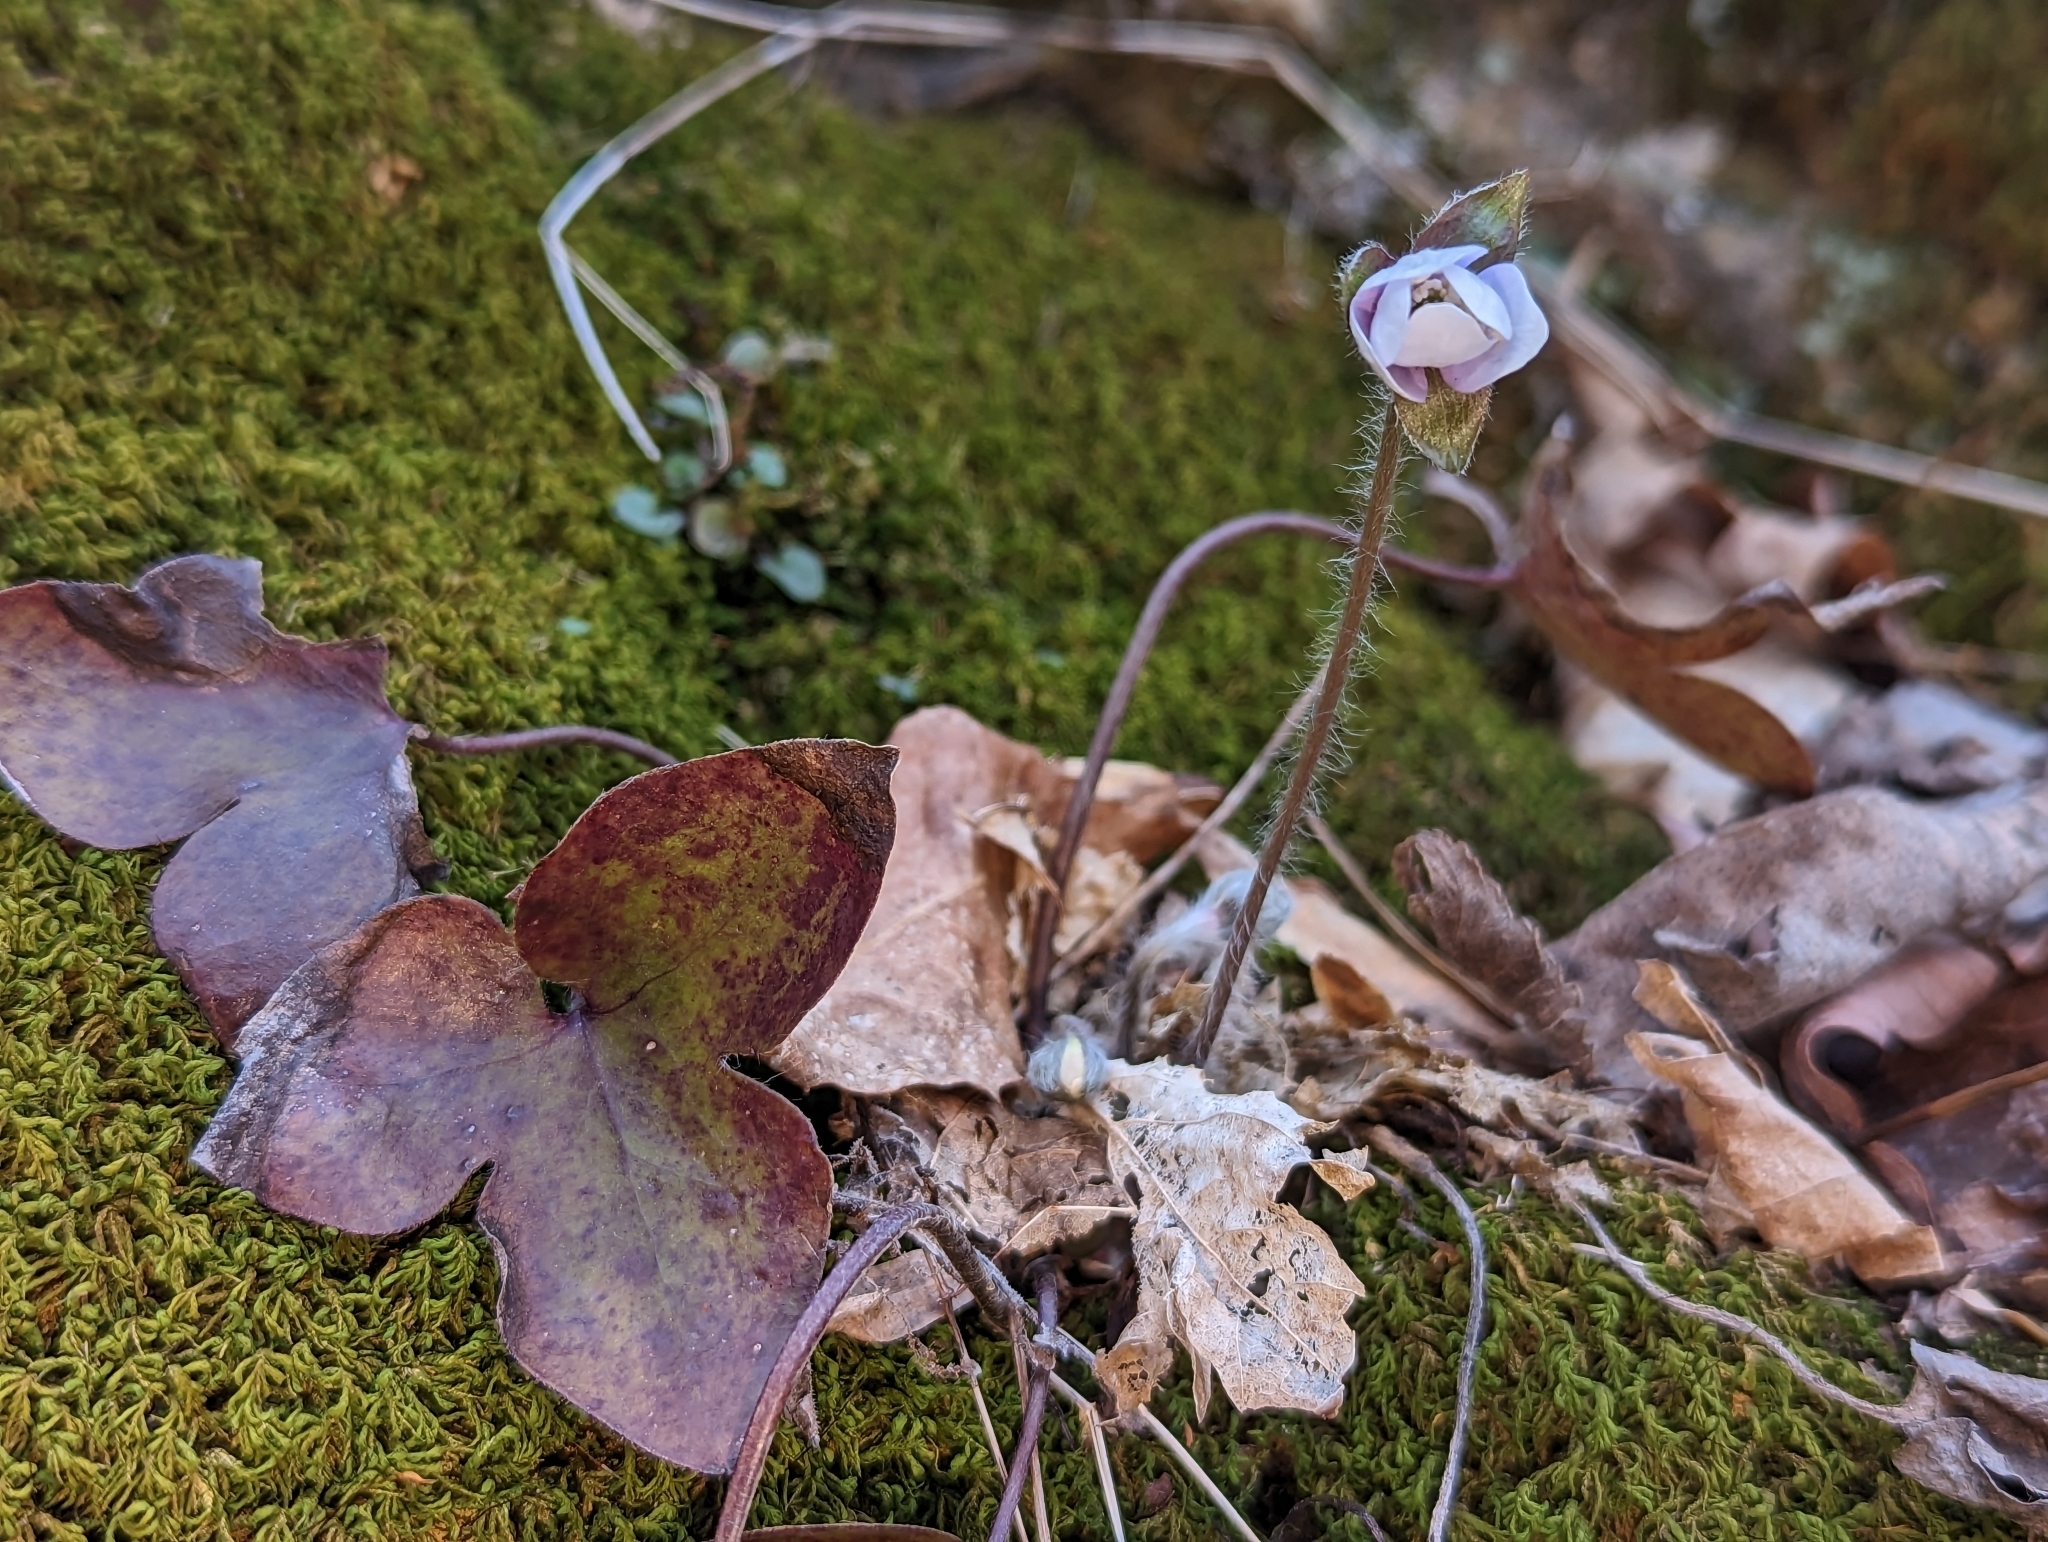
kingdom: Plantae
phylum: Tracheophyta
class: Magnoliopsida
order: Ranunculales
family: Ranunculaceae
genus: Hepatica
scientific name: Hepatica acutiloba
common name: Sharp-lobed hepatica
